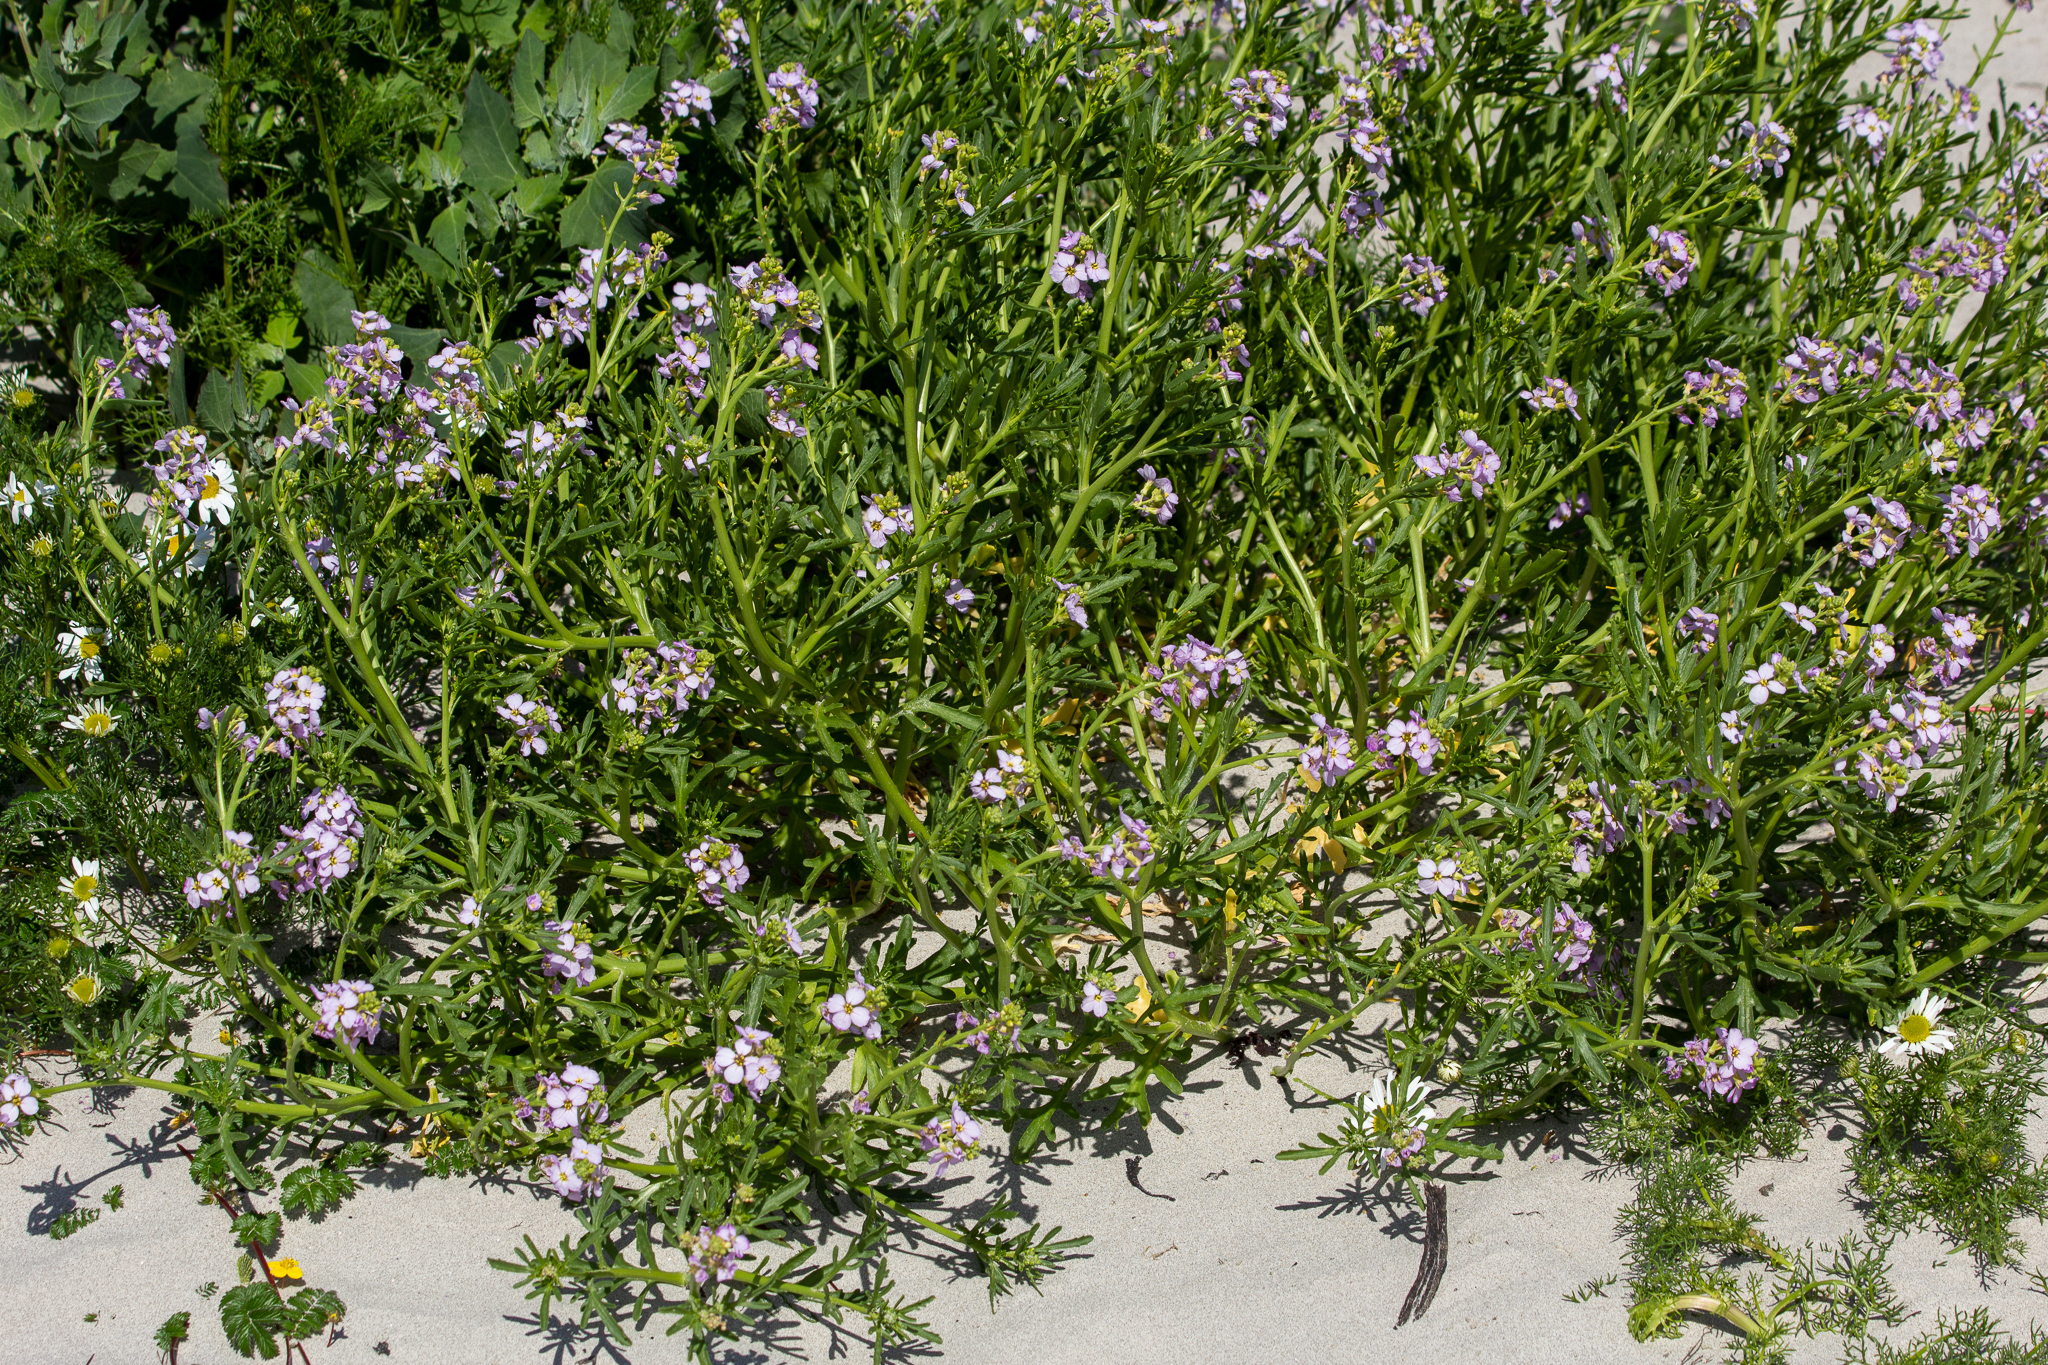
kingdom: Plantae
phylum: Tracheophyta
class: Magnoliopsida
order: Brassicales
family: Brassicaceae
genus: Cakile
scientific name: Cakile maritima
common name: Sea rocket
